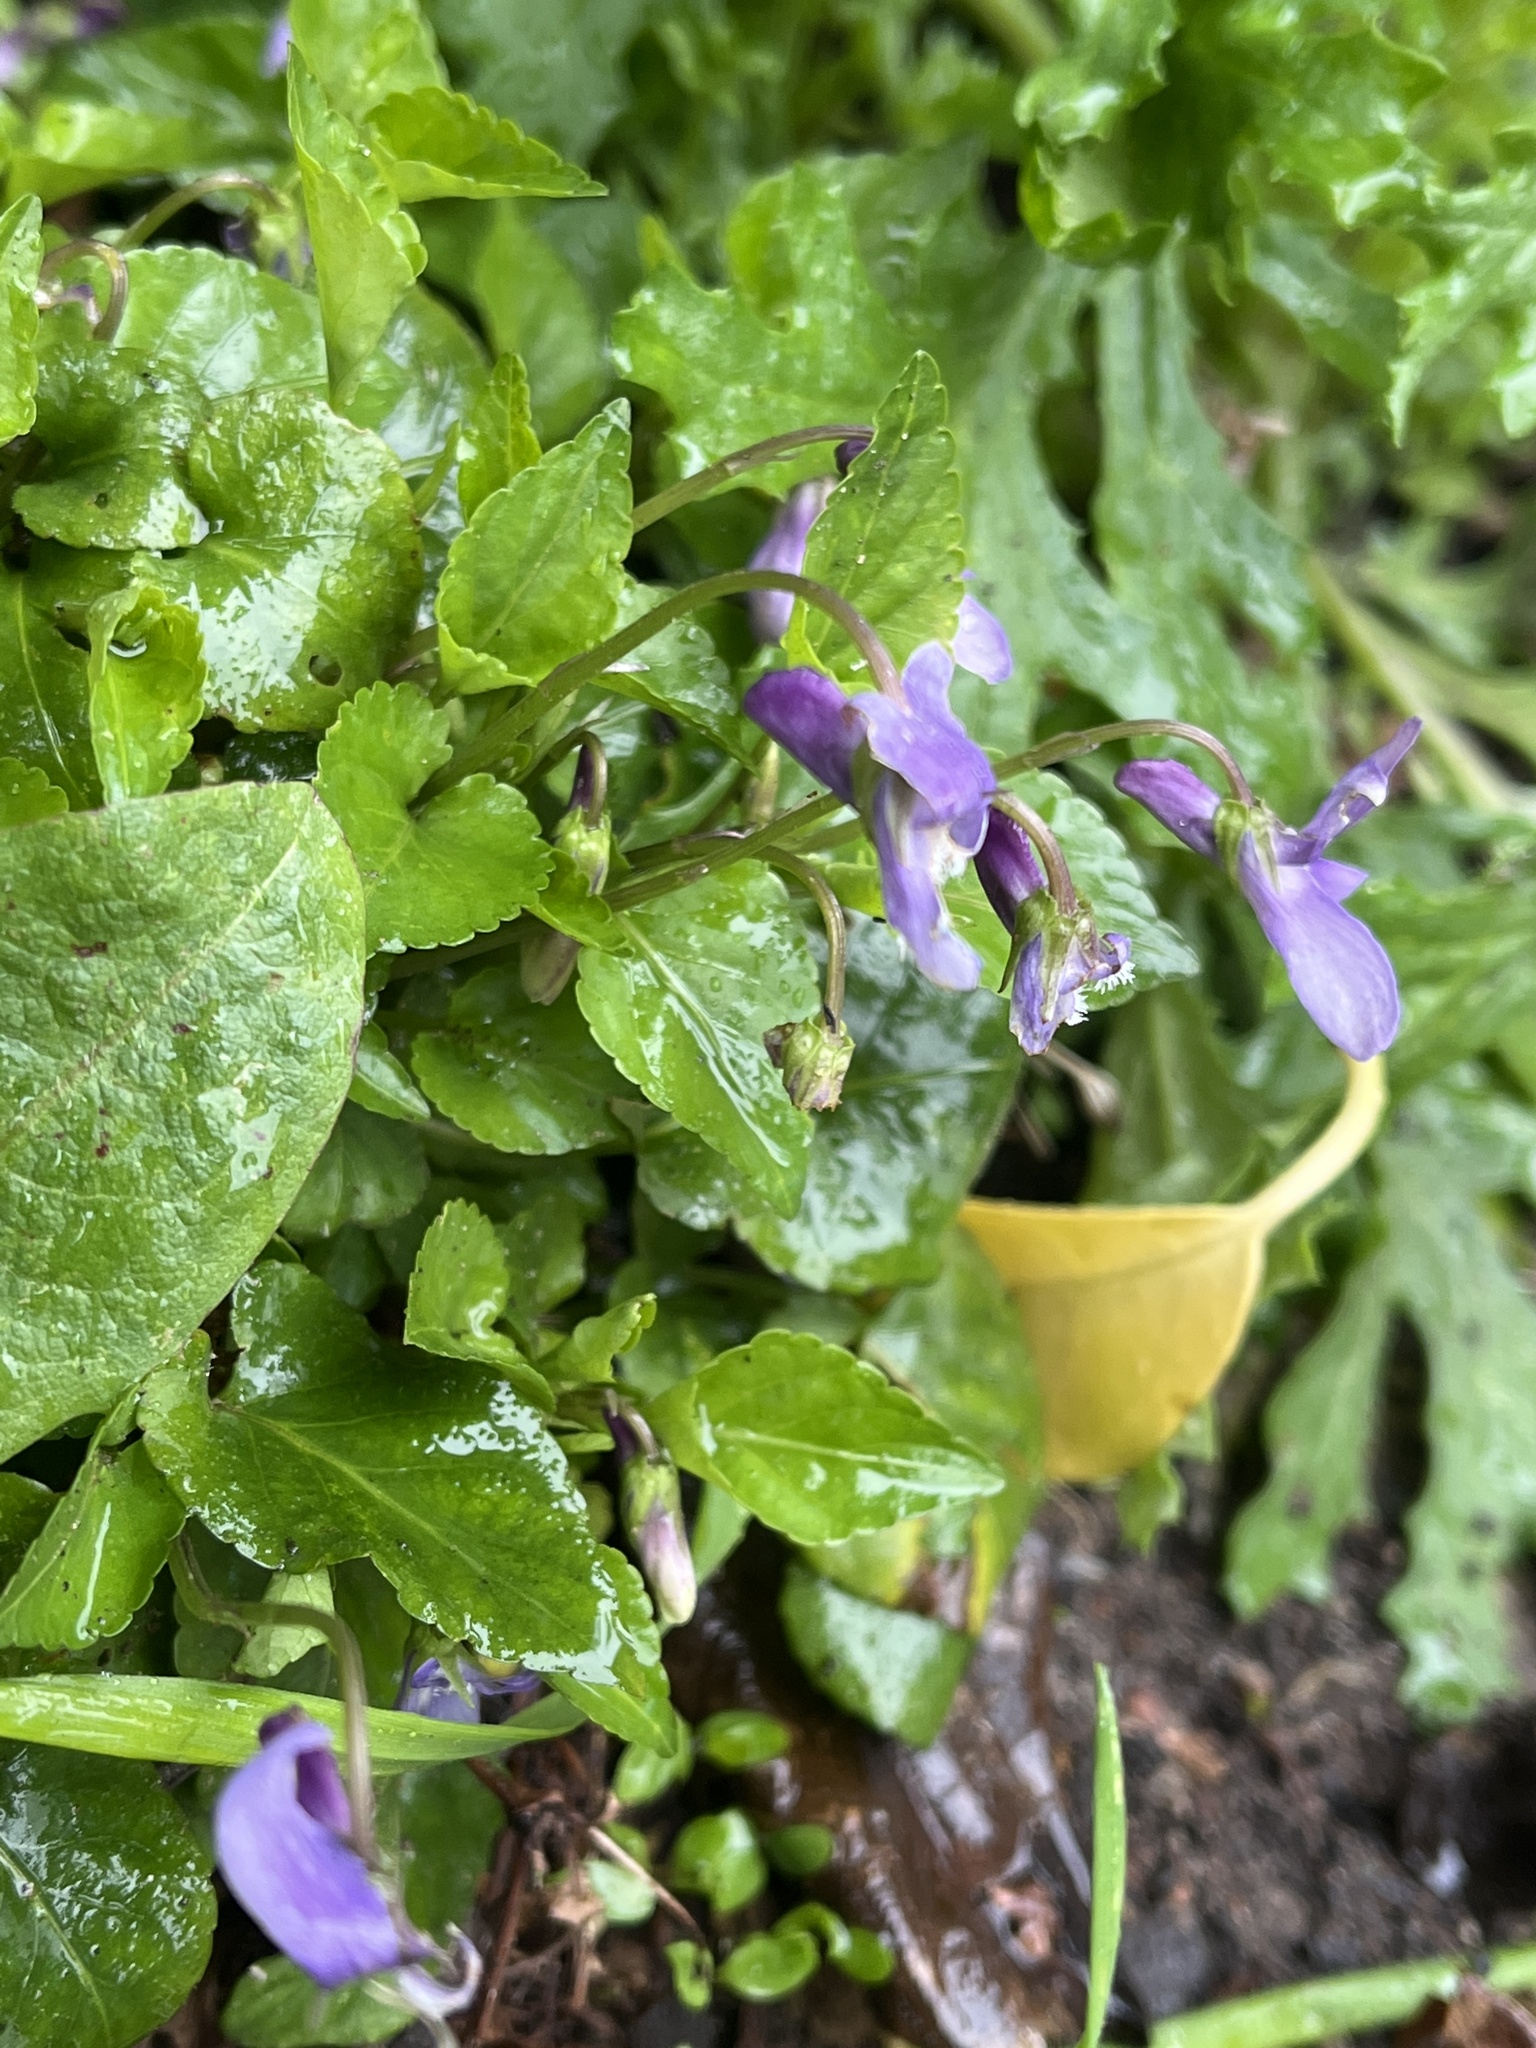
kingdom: Plantae
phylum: Tracheophyta
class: Magnoliopsida
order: Malpighiales
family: Violaceae
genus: Viola
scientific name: Viola reichenbachiana
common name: Early dog-violet
